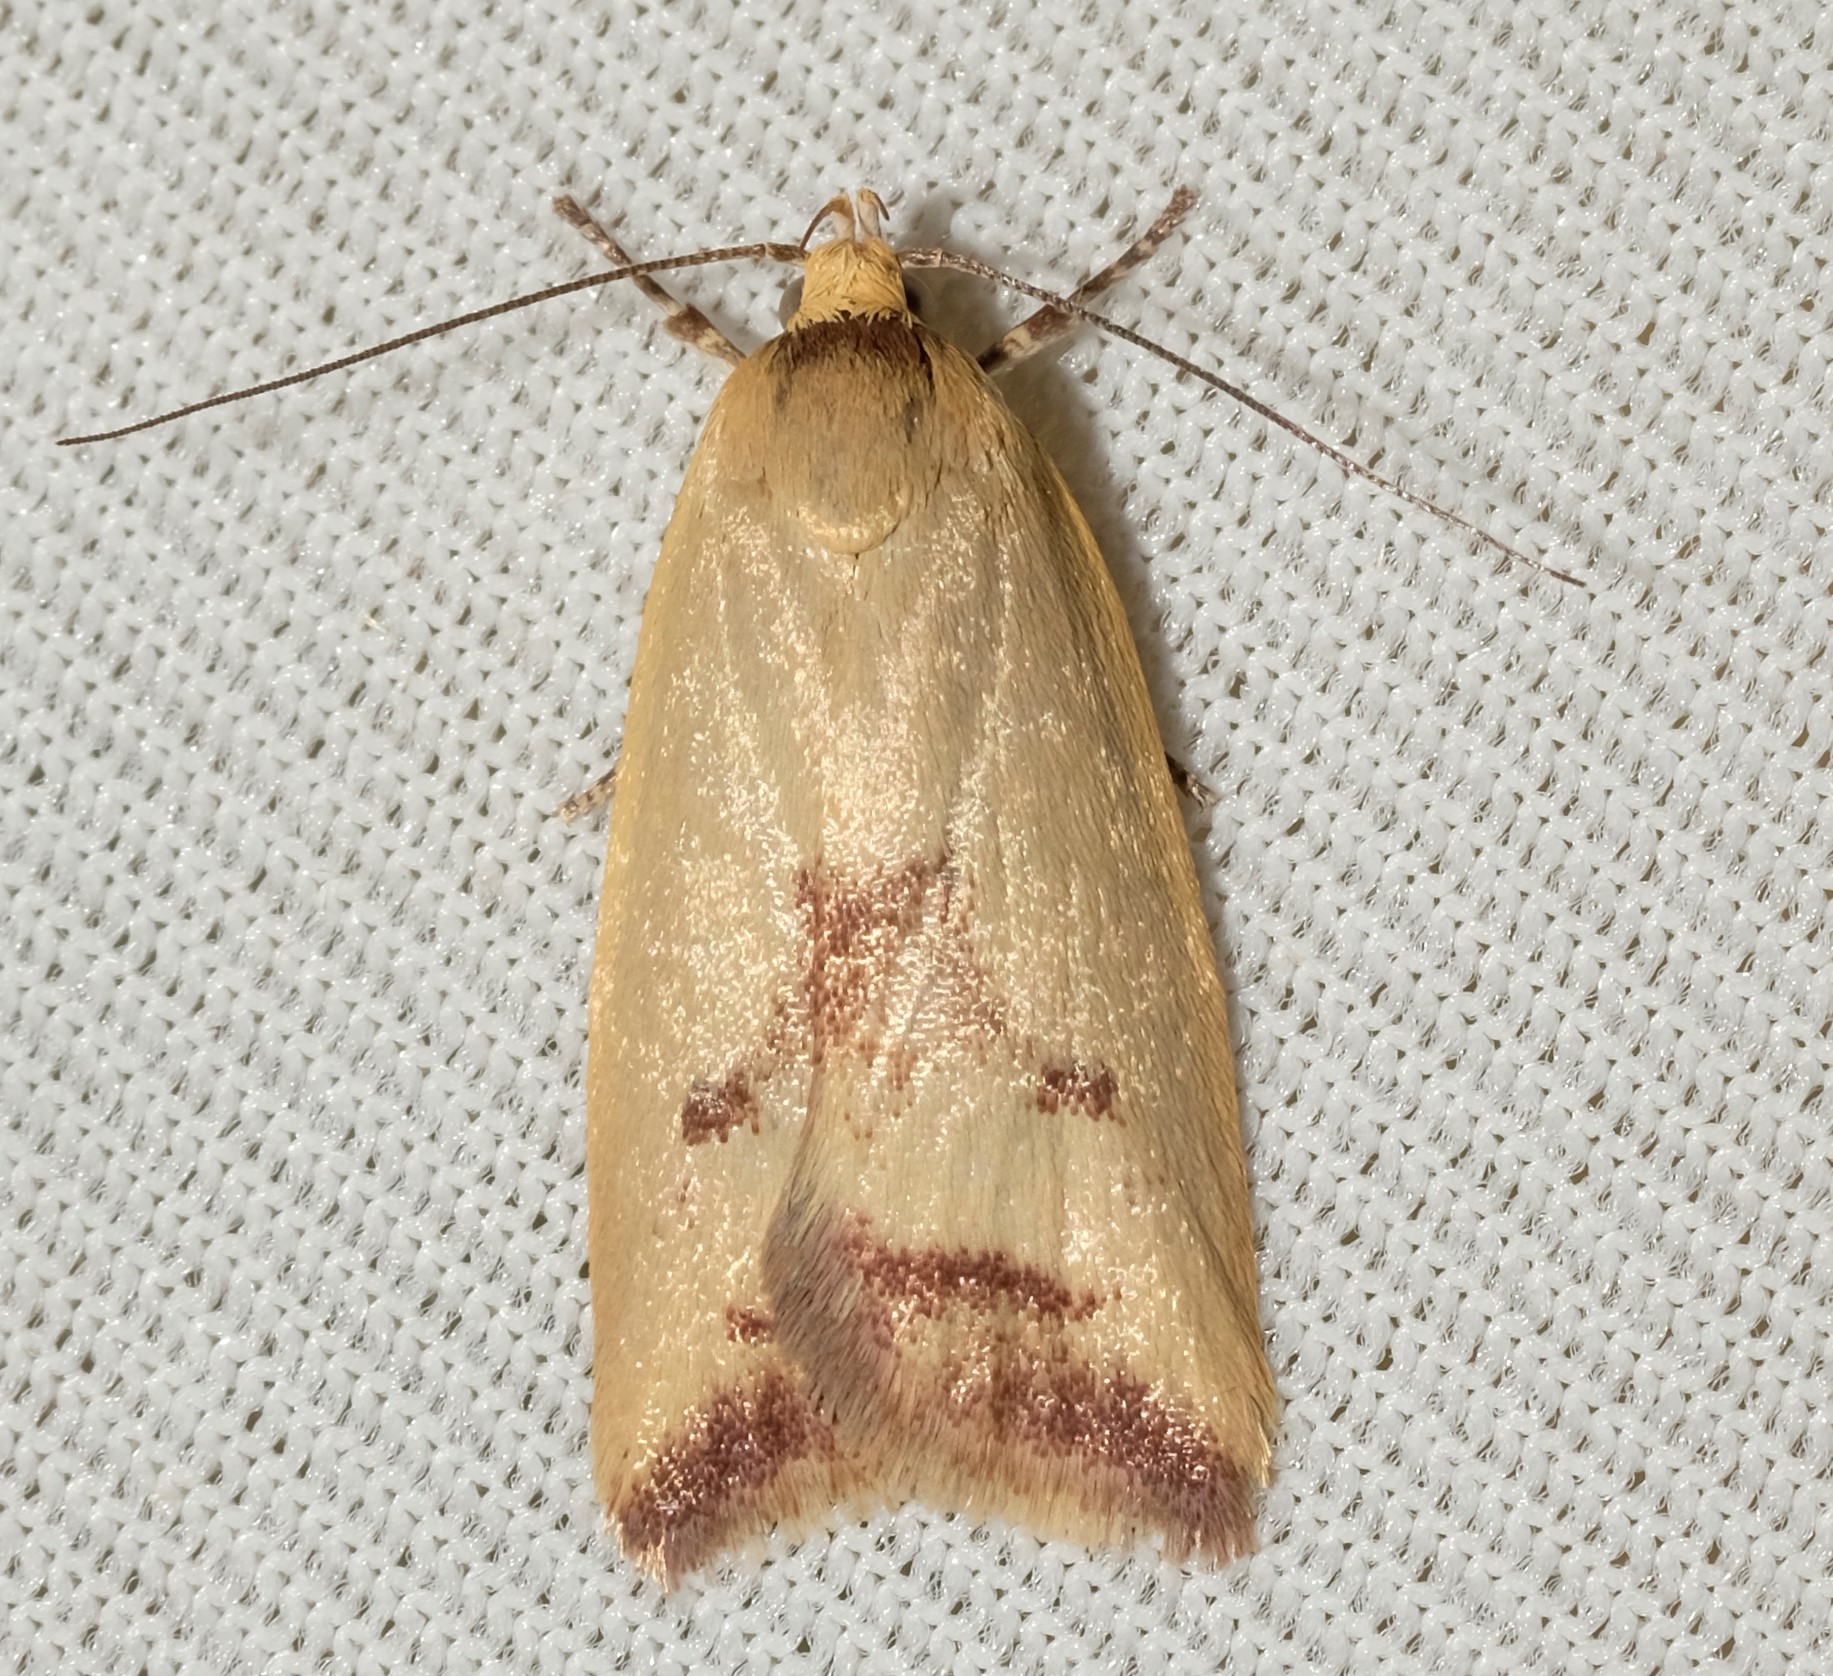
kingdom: Animalia
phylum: Arthropoda
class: Insecta
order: Lepidoptera
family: Oecophoridae
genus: Ageletha
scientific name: Ageletha elaeodes
